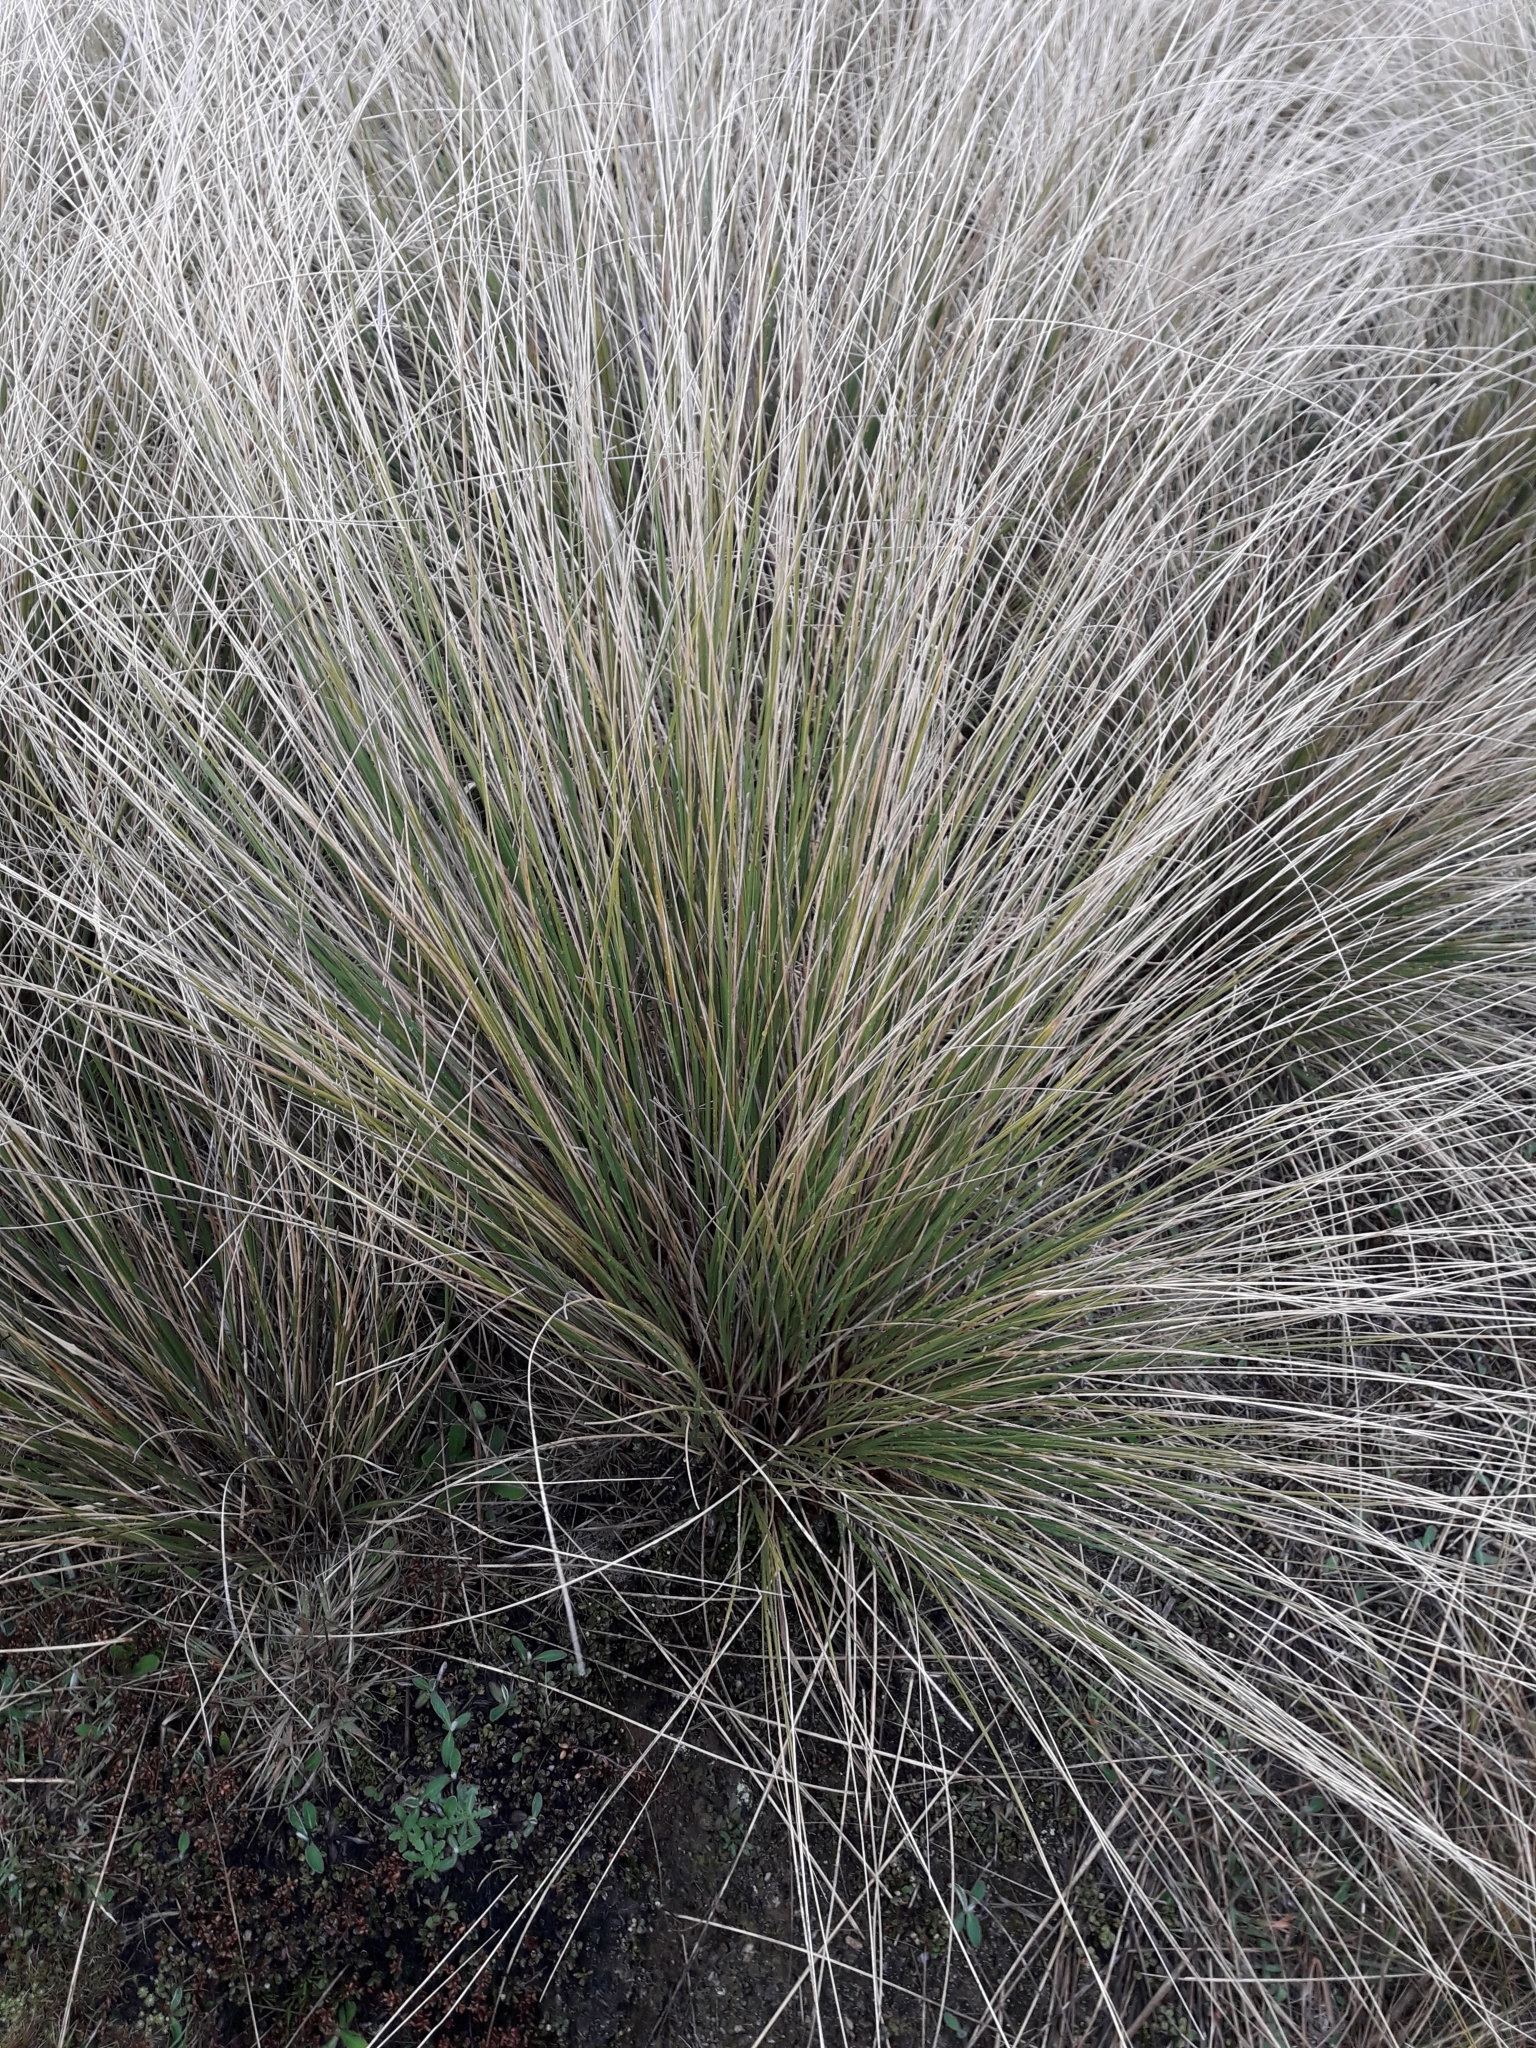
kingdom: Plantae
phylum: Tracheophyta
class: Liliopsida
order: Poales
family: Poaceae
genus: Chionochloa
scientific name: Chionochloa rigida
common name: Narrow leaved snow tussock
